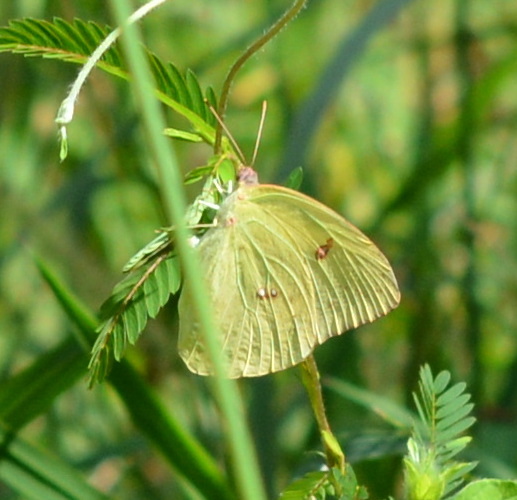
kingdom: Animalia
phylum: Arthropoda
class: Insecta
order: Lepidoptera
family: Pieridae
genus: Phoebis
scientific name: Phoebis sennae
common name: Cloudless sulphur
